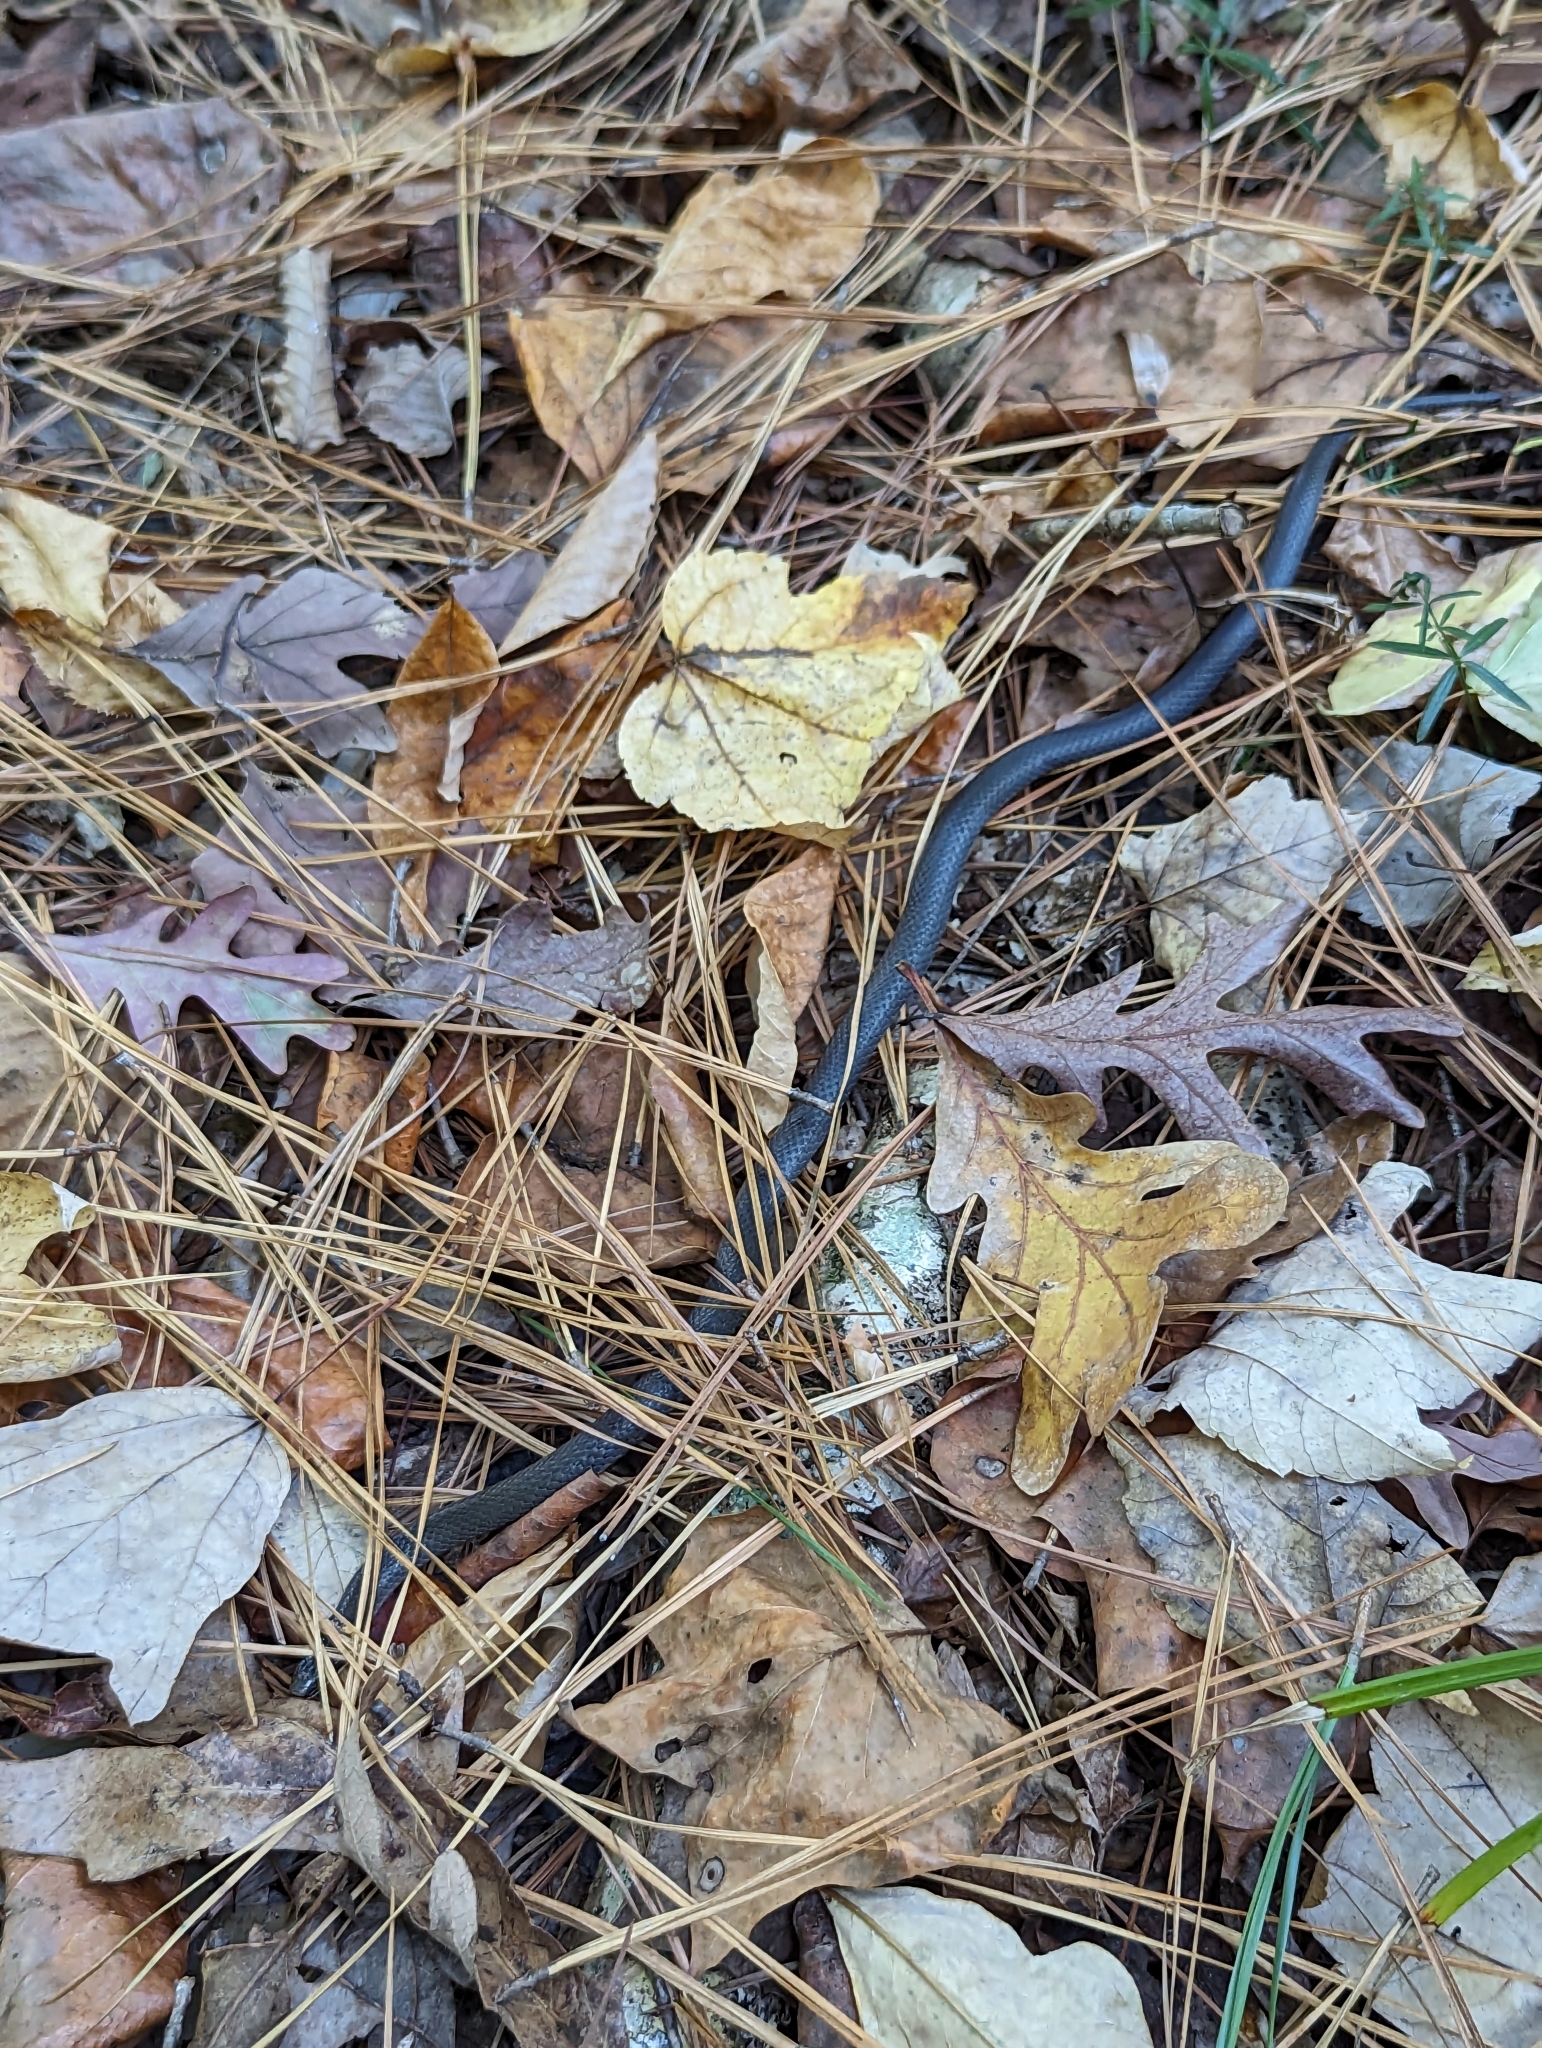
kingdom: Animalia
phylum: Chordata
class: Squamata
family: Colubridae
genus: Diadophis
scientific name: Diadophis punctatus
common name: Ringneck snake
